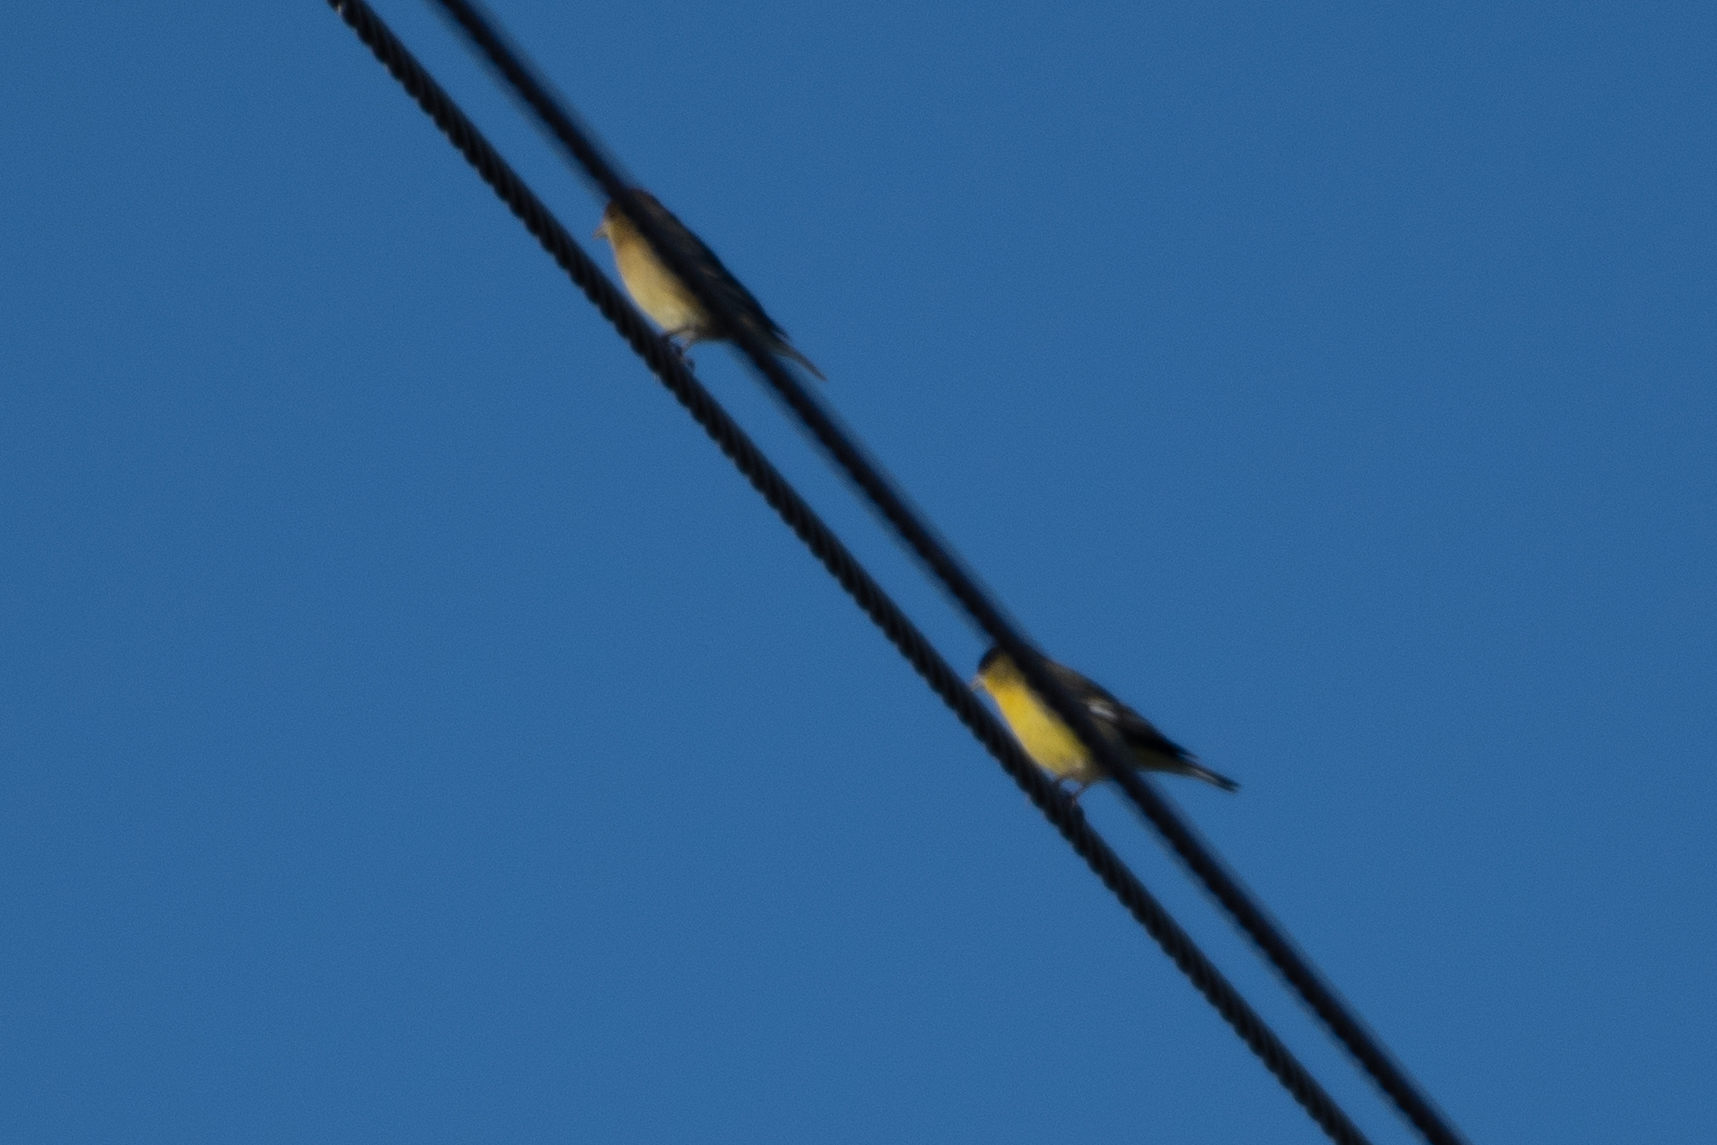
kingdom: Animalia
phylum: Chordata
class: Aves
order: Passeriformes
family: Fringillidae
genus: Spinus
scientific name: Spinus psaltria
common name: Lesser goldfinch
